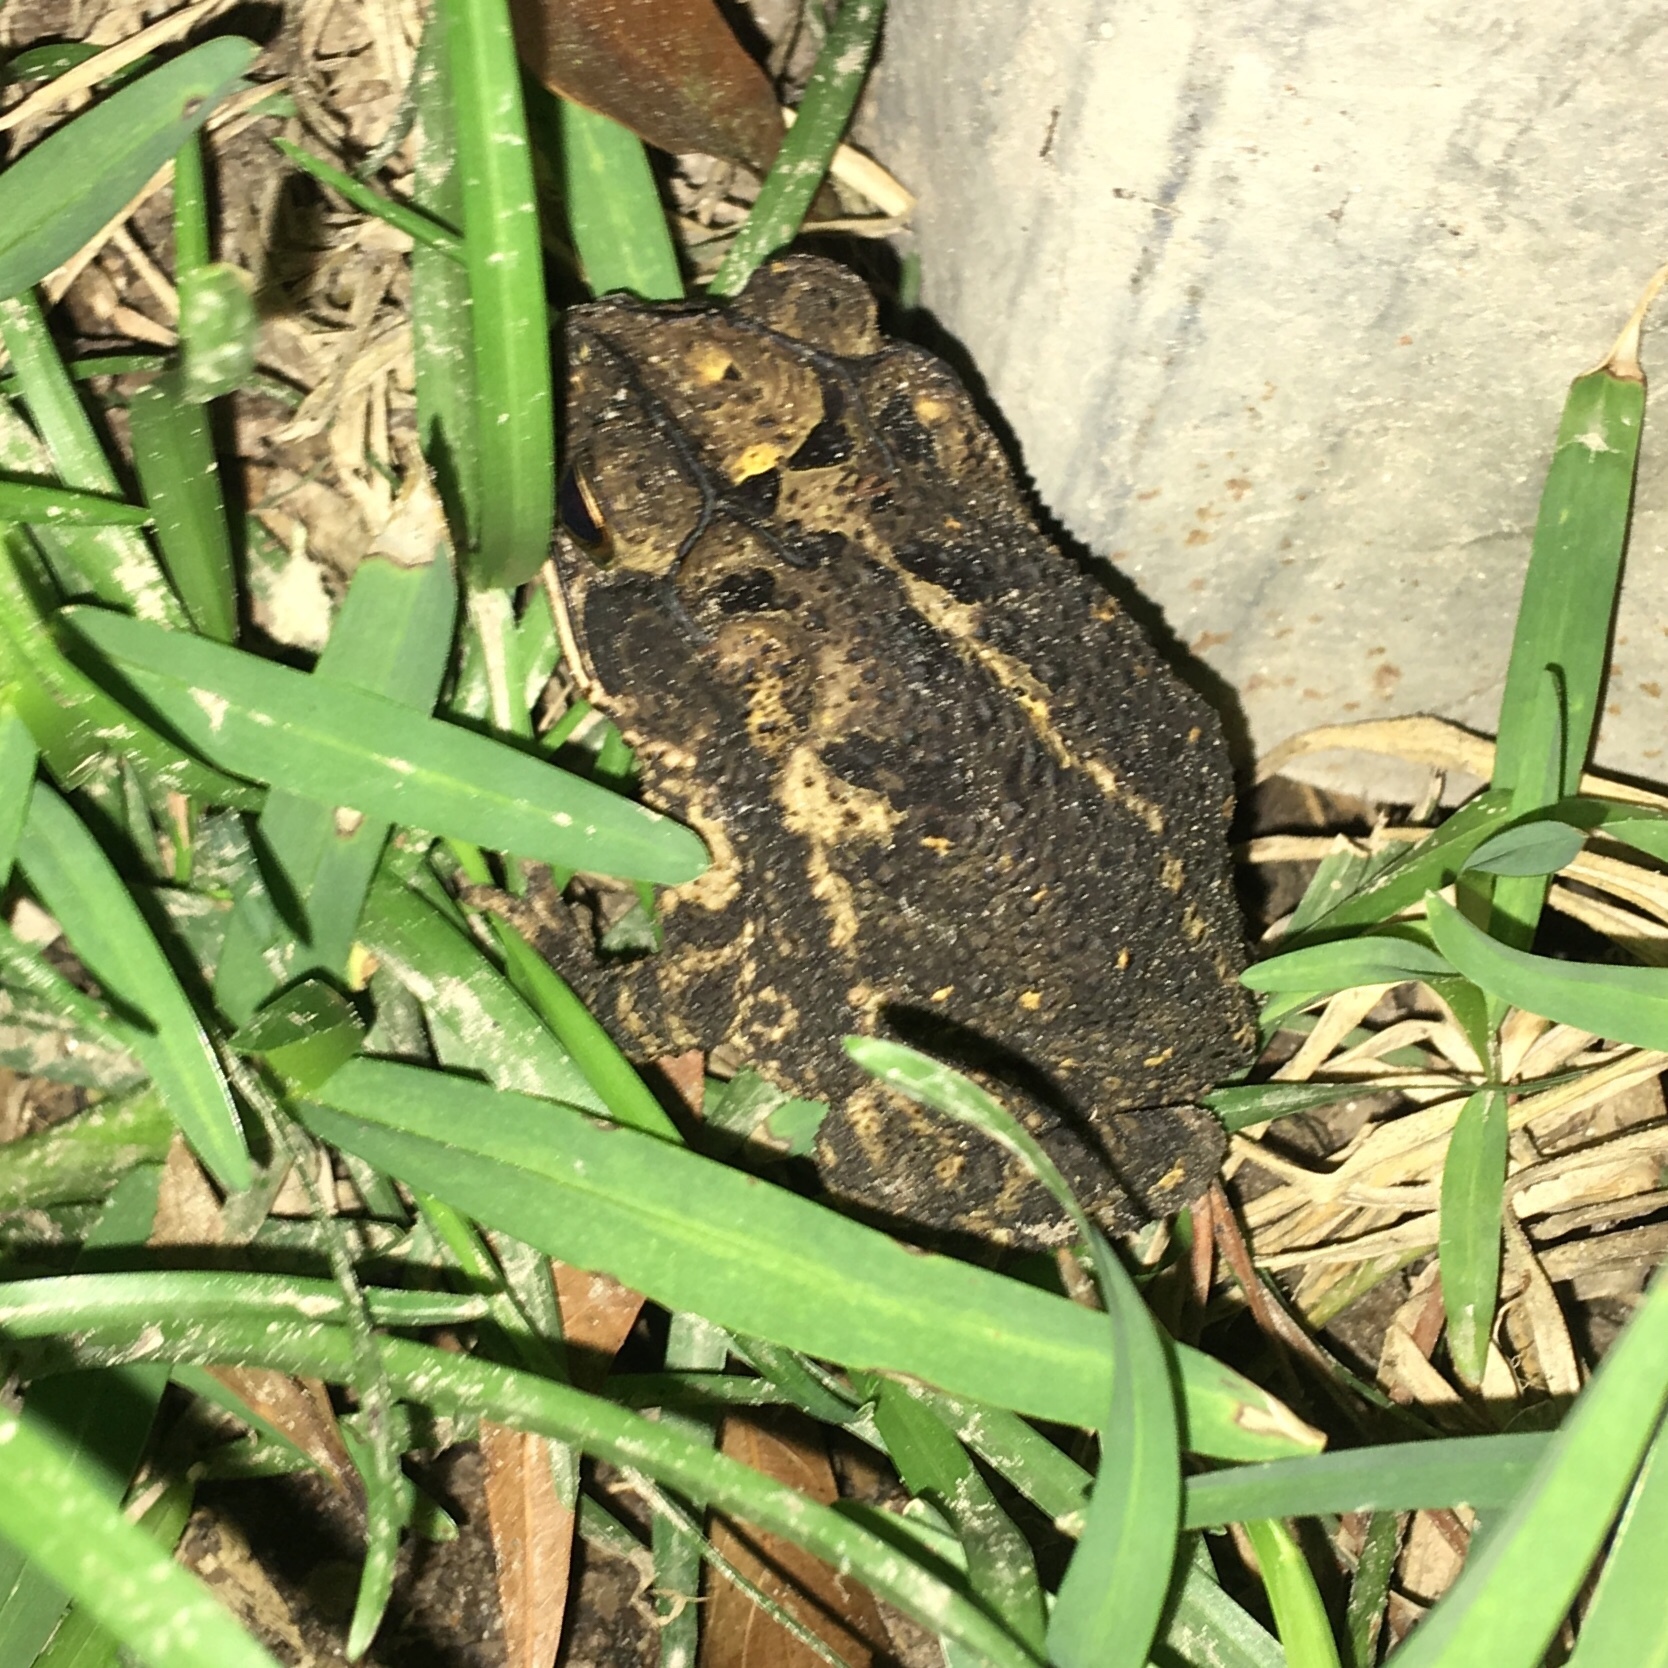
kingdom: Animalia
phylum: Chordata
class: Amphibia
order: Anura
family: Bufonidae
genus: Incilius
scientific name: Incilius nebulifer
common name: Gulf coast toad
